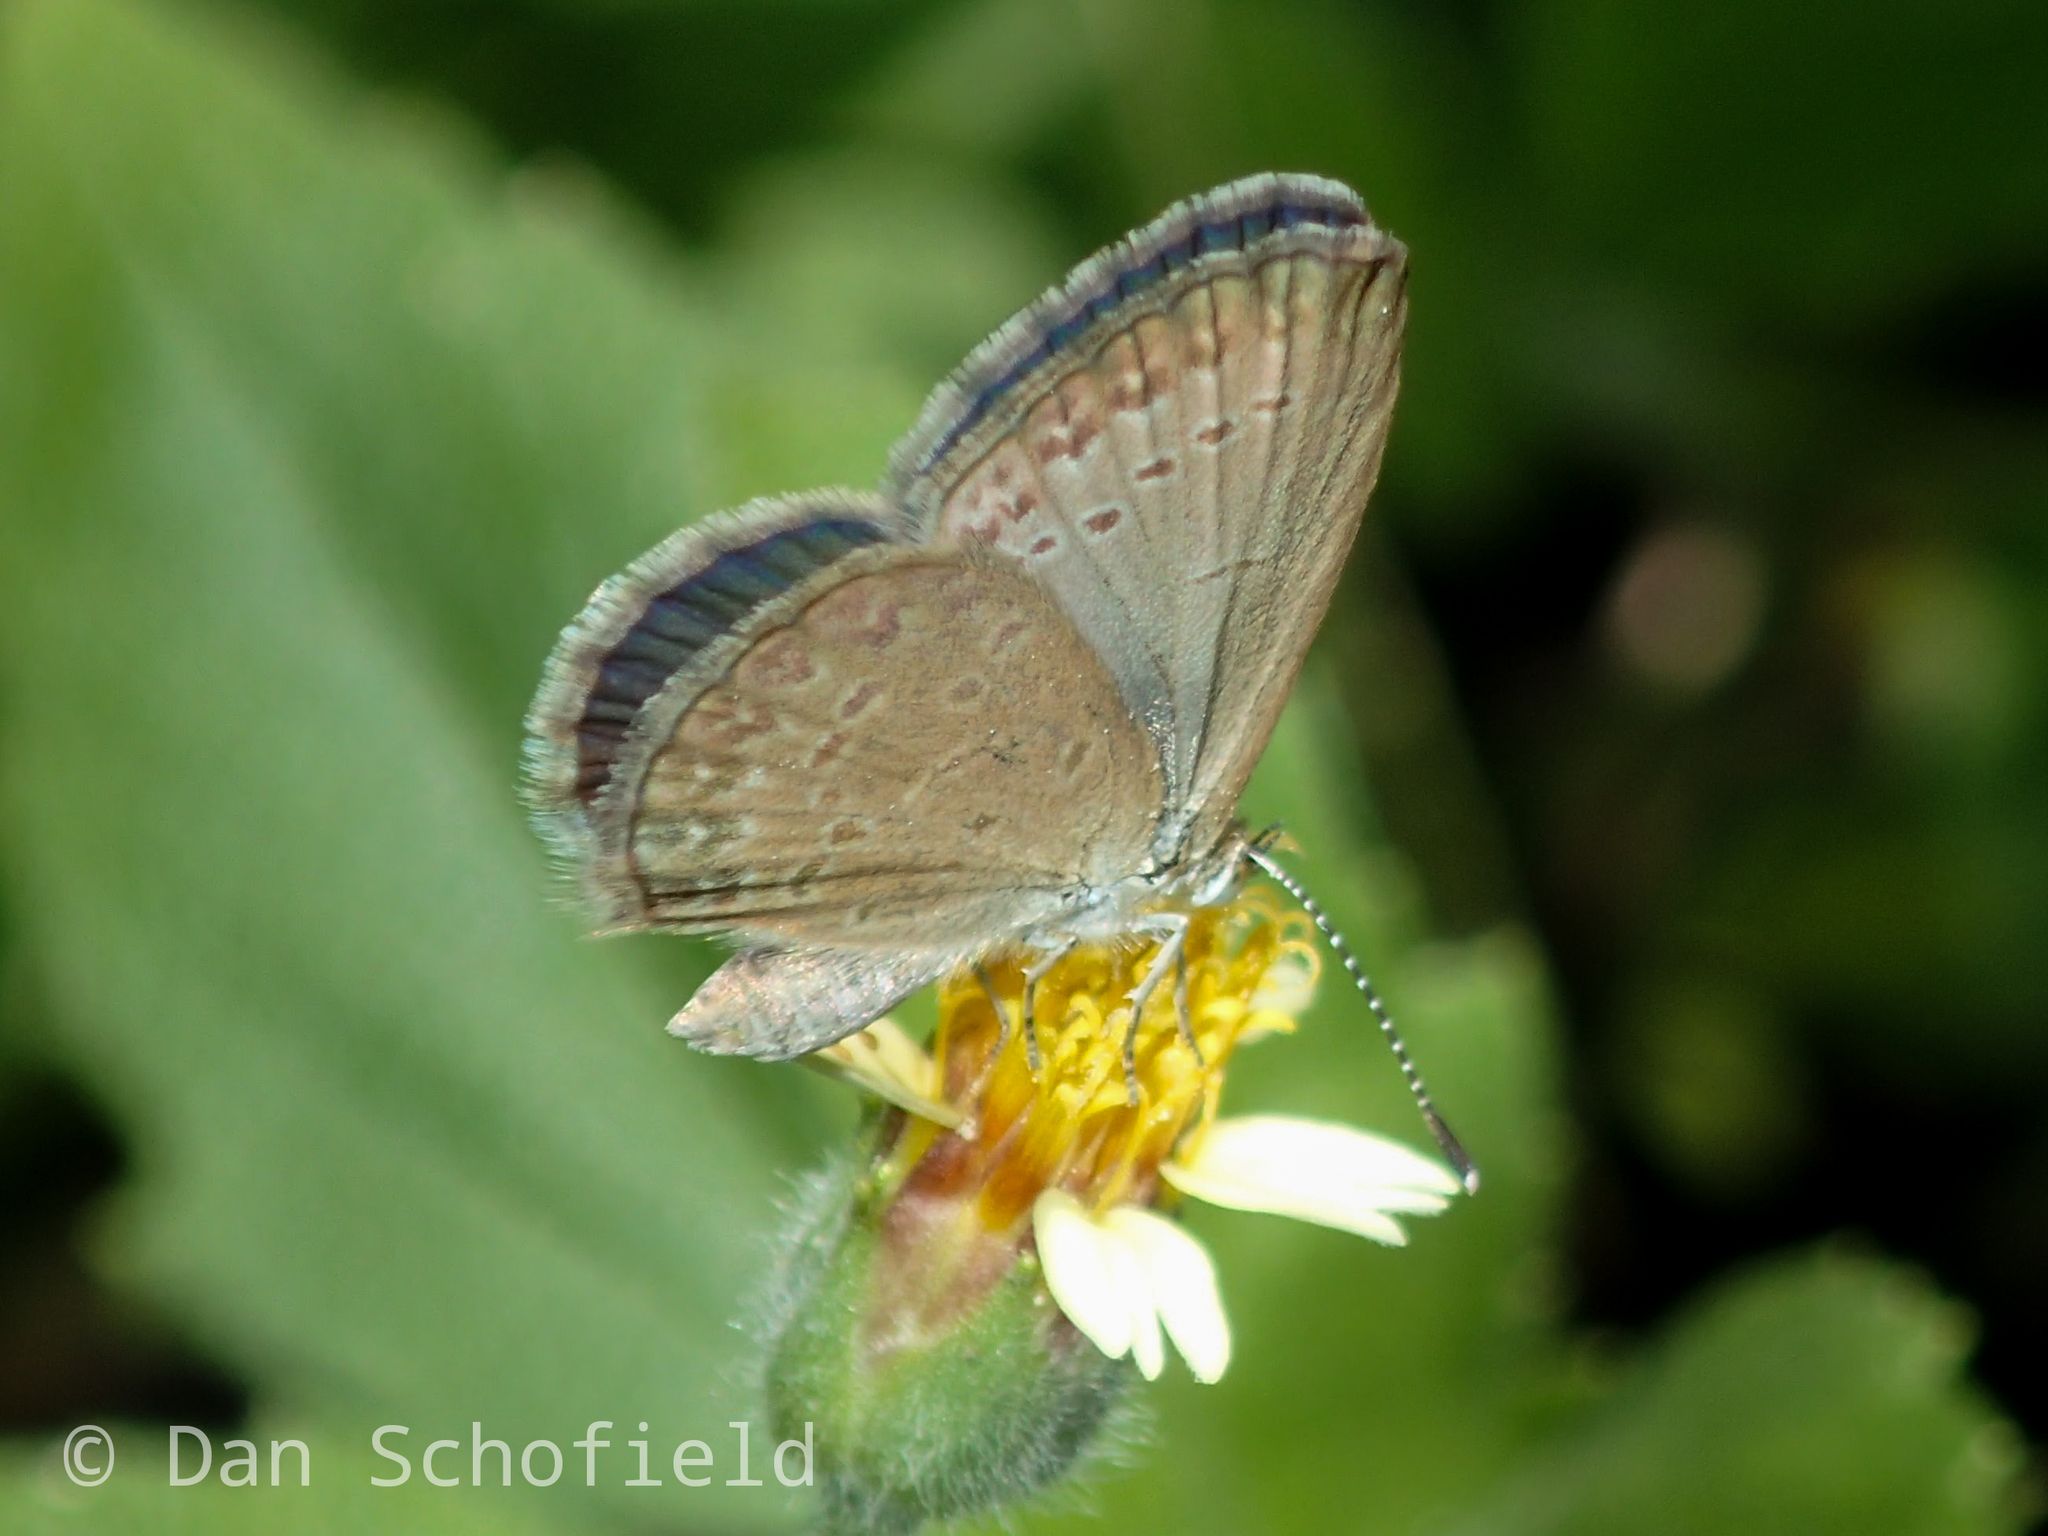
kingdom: Animalia
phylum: Arthropoda
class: Insecta
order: Lepidoptera
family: Lycaenidae
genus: Zizina
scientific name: Zizina otis
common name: Lesser grass blue
